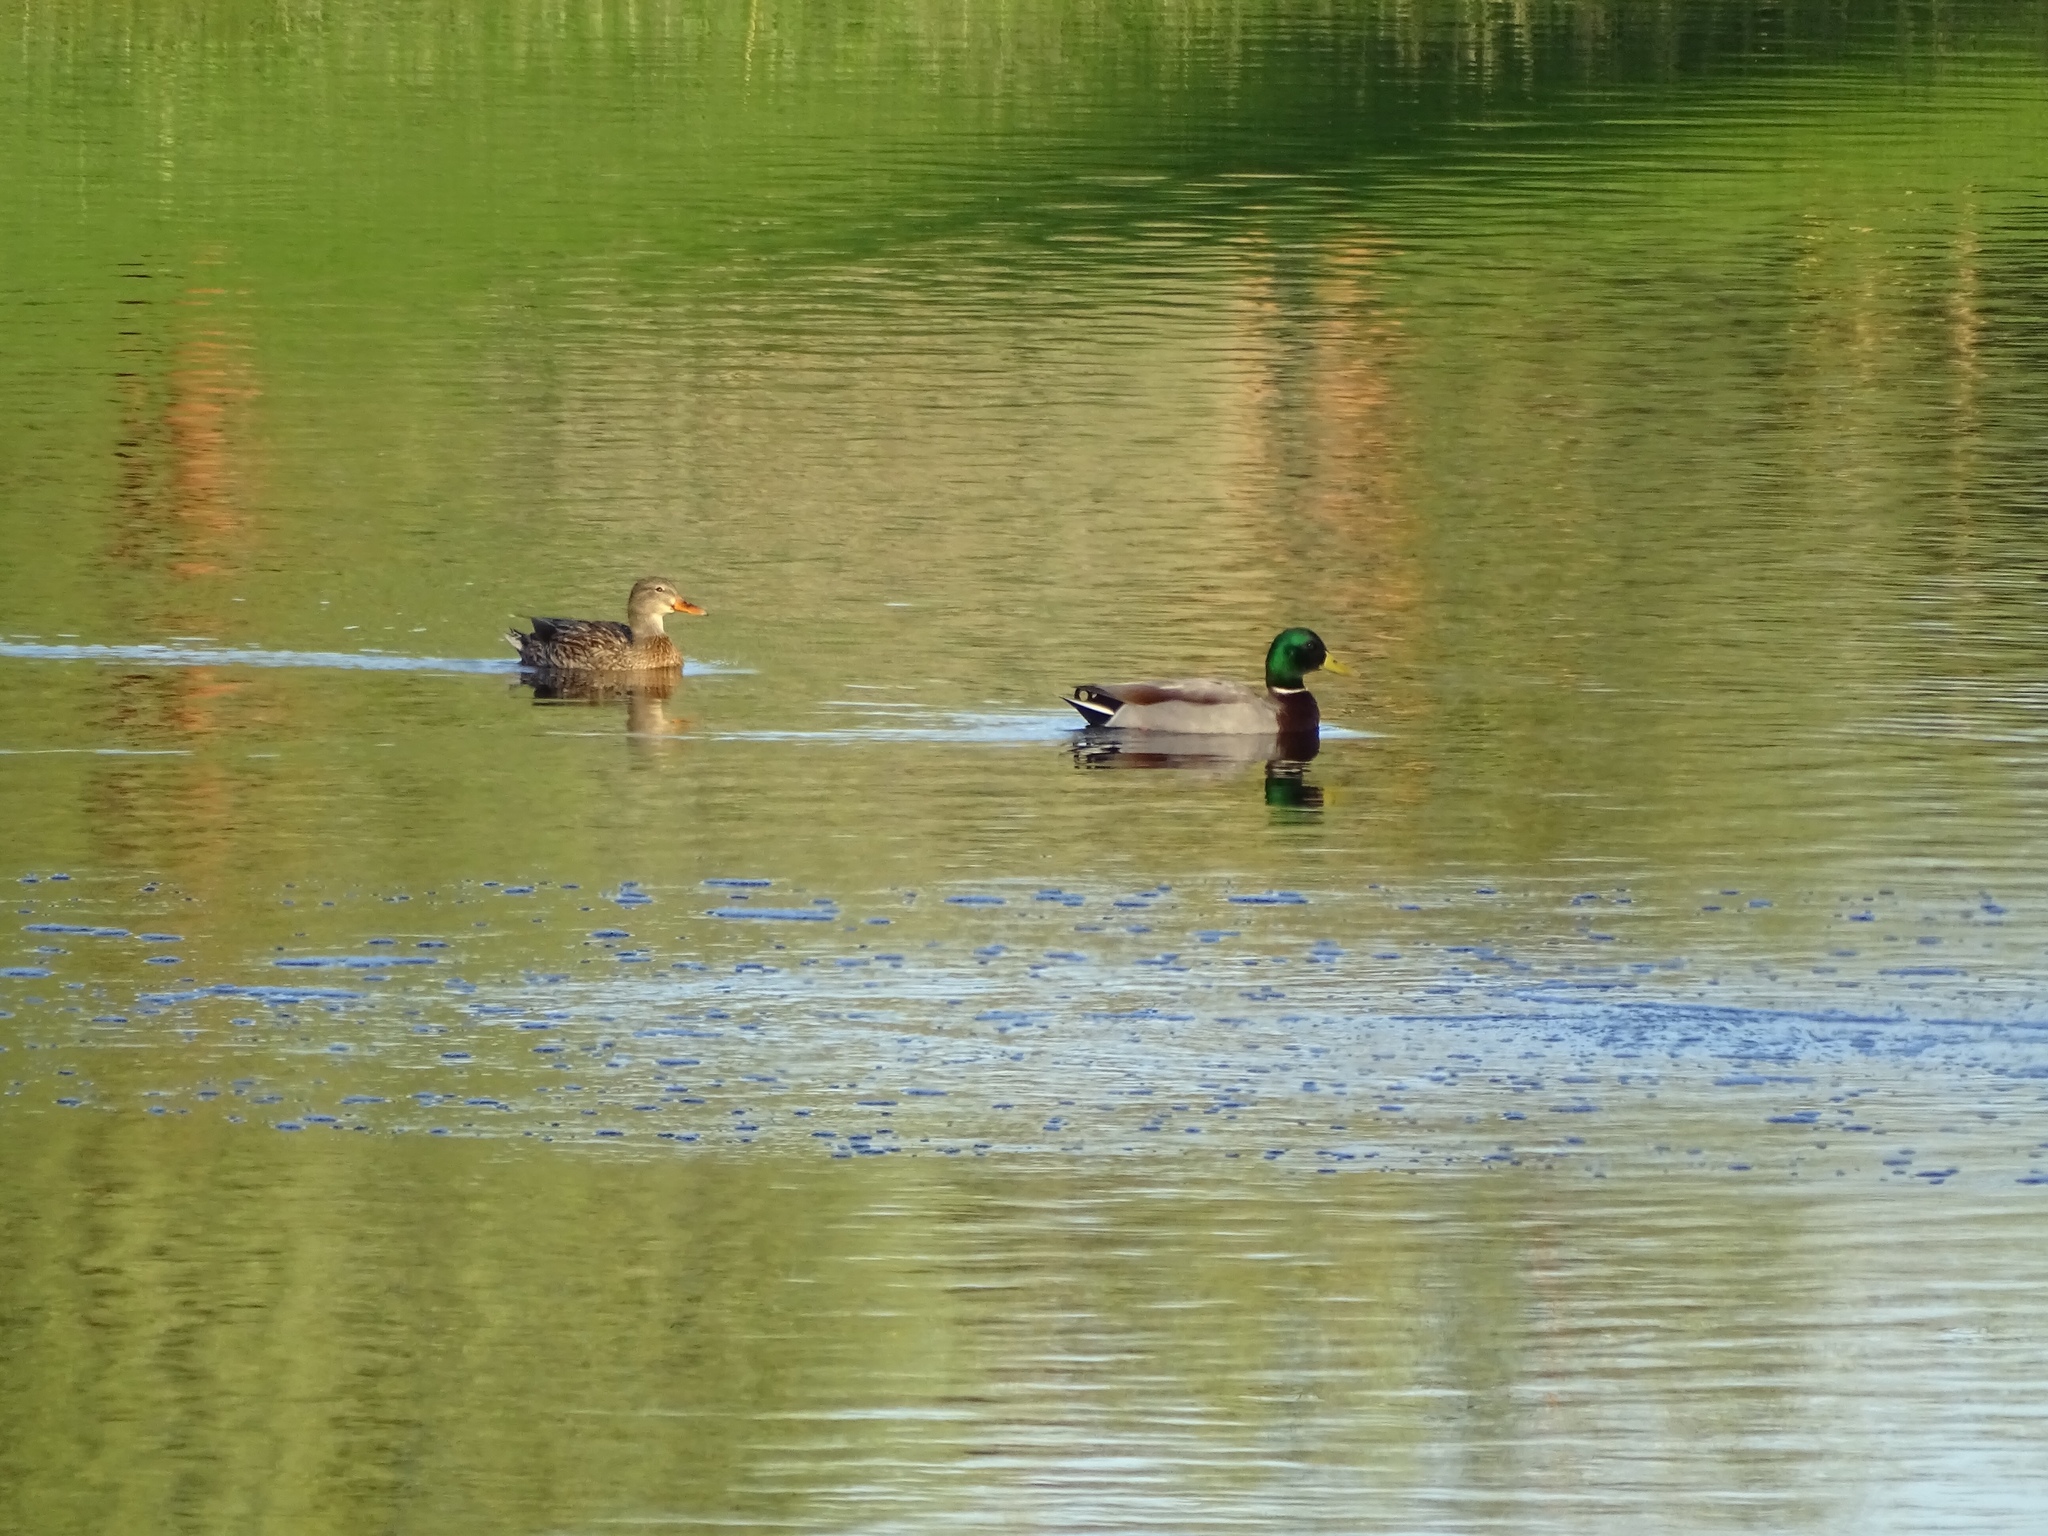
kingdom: Animalia
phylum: Chordata
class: Aves
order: Anseriformes
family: Anatidae
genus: Anas
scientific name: Anas platyrhynchos
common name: Mallard
